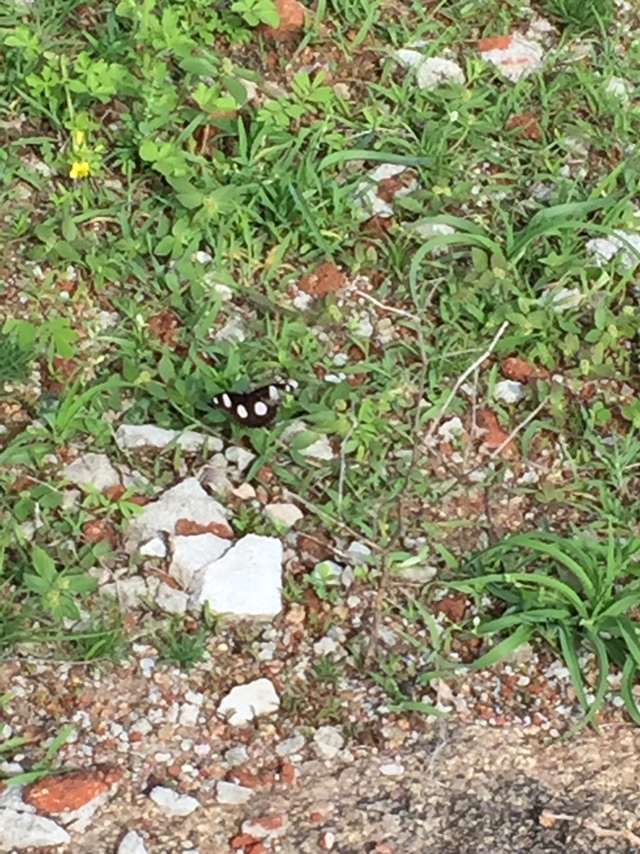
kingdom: Animalia
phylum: Arthropoda
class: Insecta
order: Lepidoptera
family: Nymphalidae
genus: Hypolimnas
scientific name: Hypolimnas misippus
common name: False plain tiger
